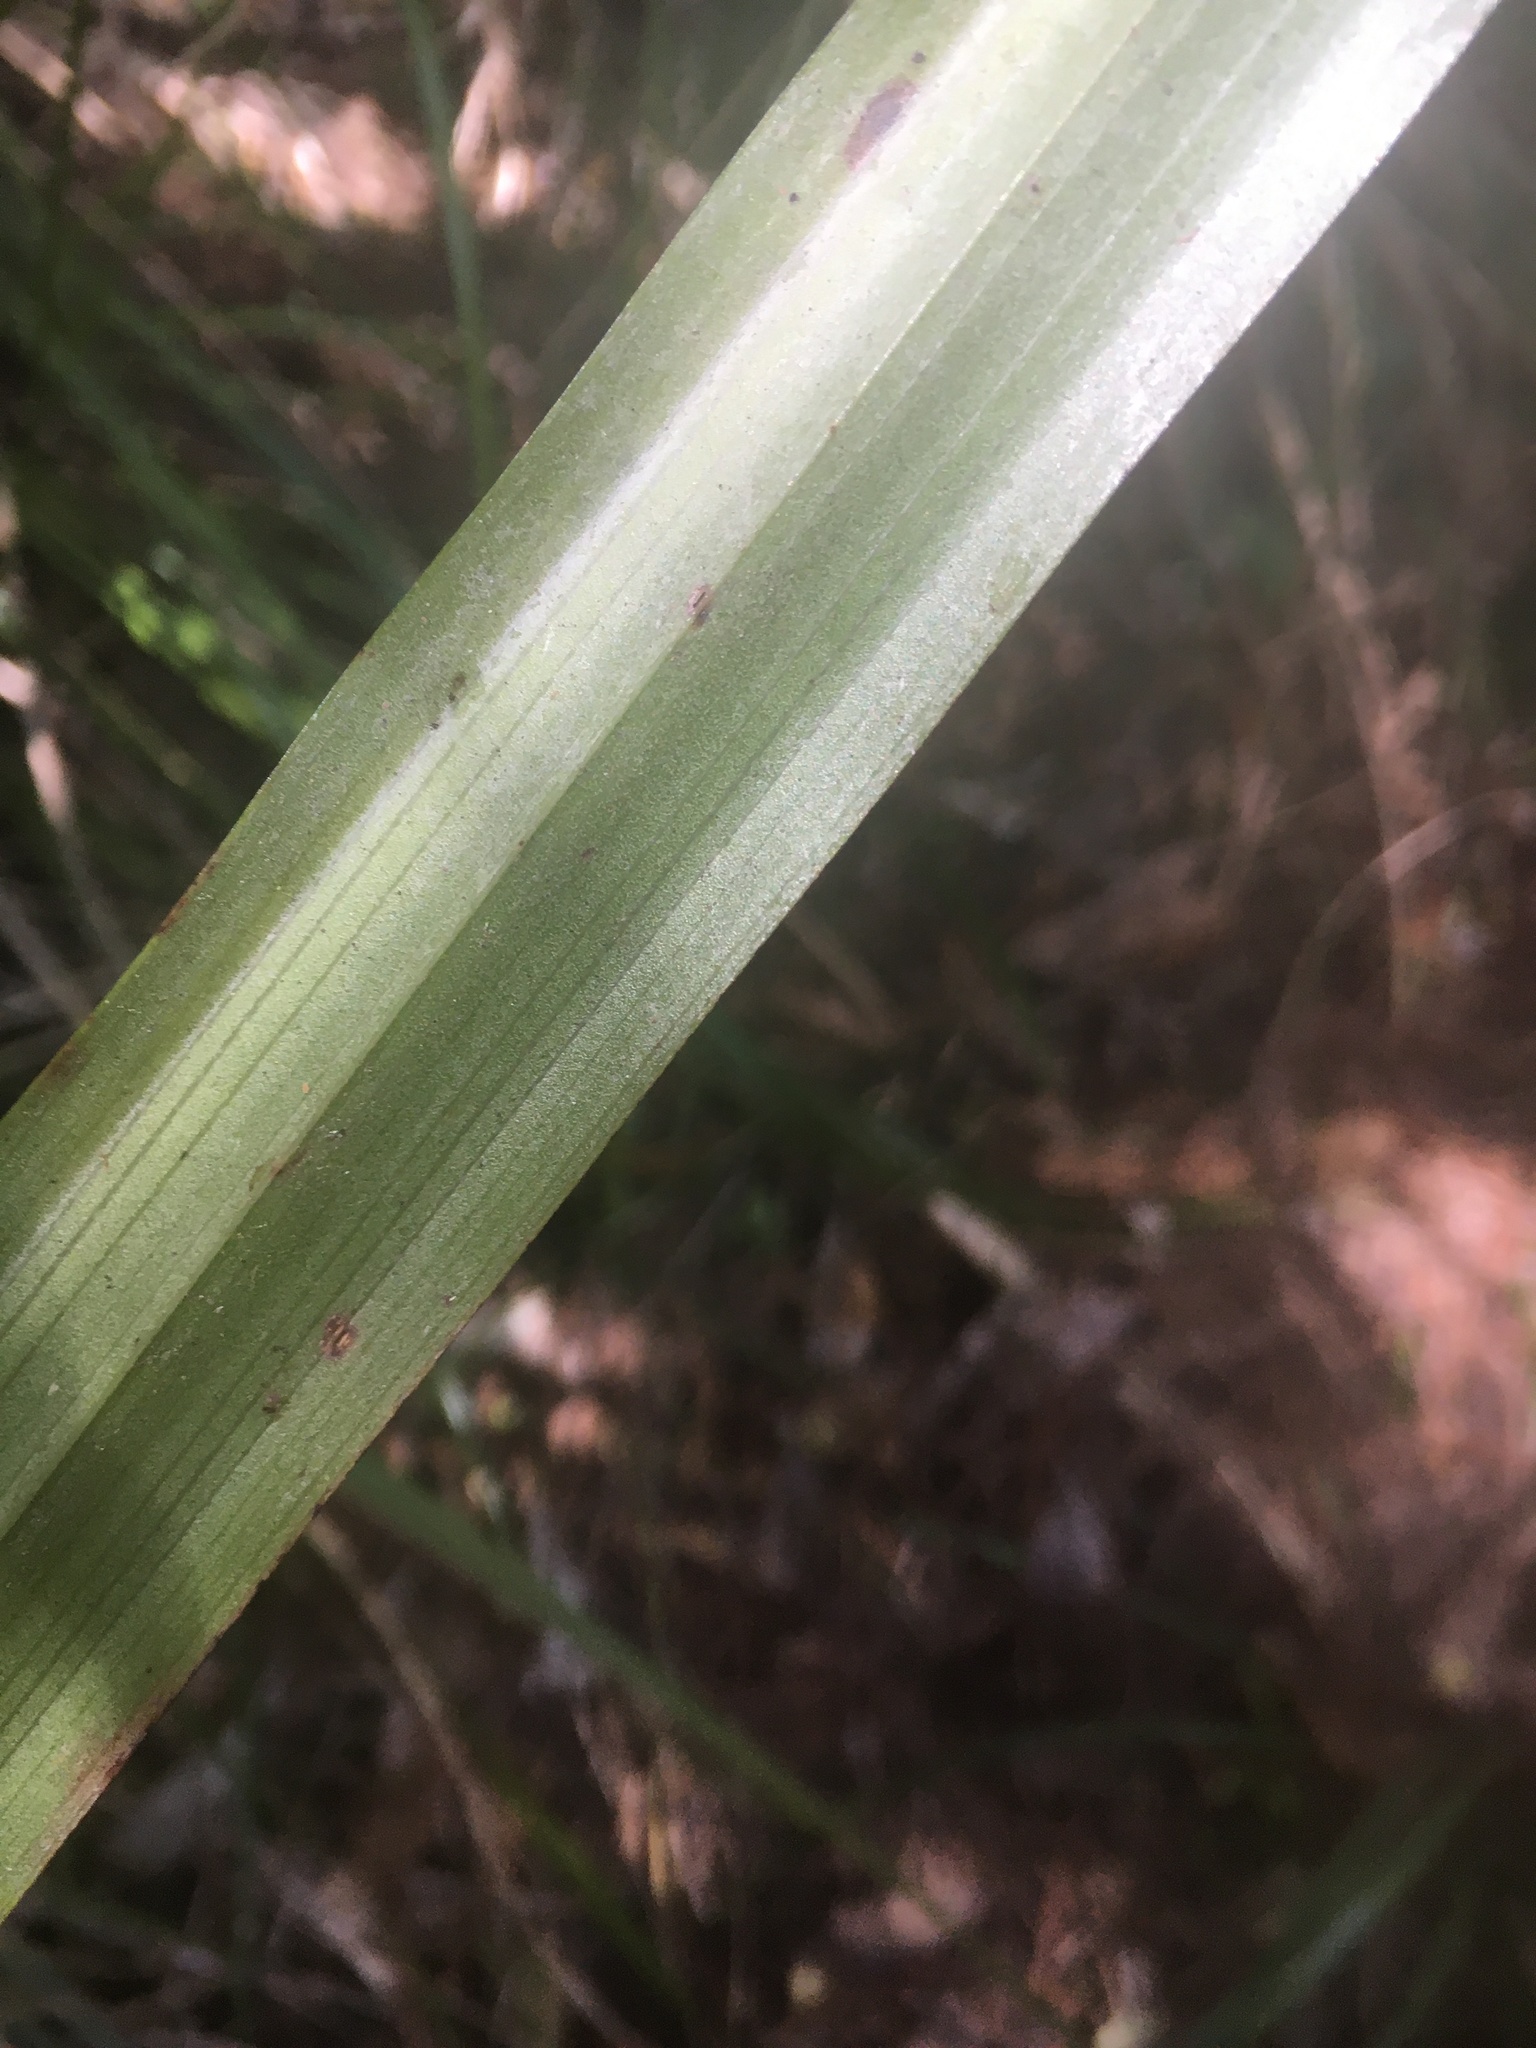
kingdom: Plantae
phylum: Tracheophyta
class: Liliopsida
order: Asparagales
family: Asteliaceae
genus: Astelia
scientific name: Astelia trinervia
